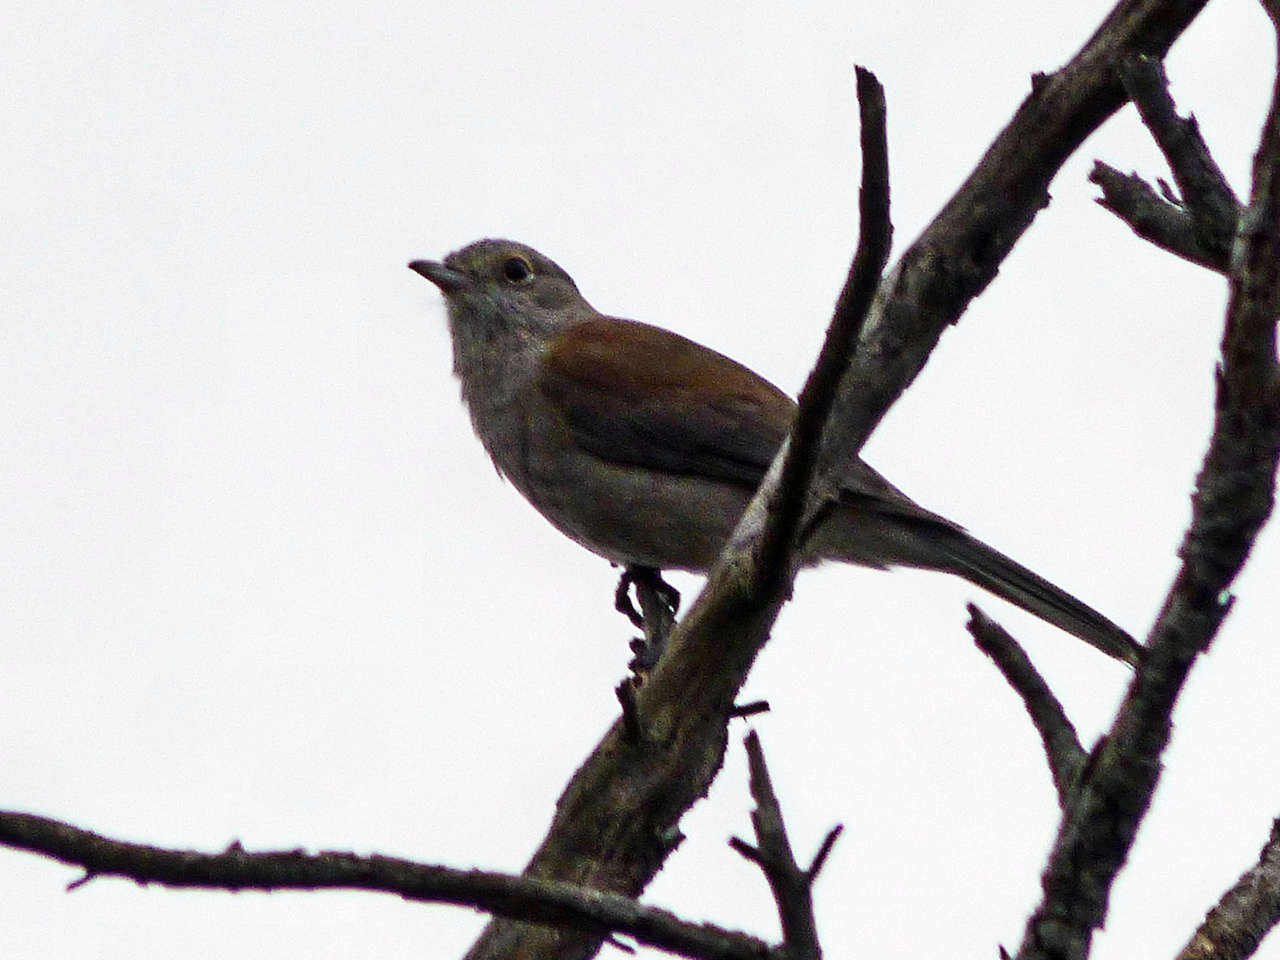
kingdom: Animalia
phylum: Chordata
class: Aves
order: Passeriformes
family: Pachycephalidae
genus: Colluricincla
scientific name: Colluricincla harmonica
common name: Grey shrikethrush
